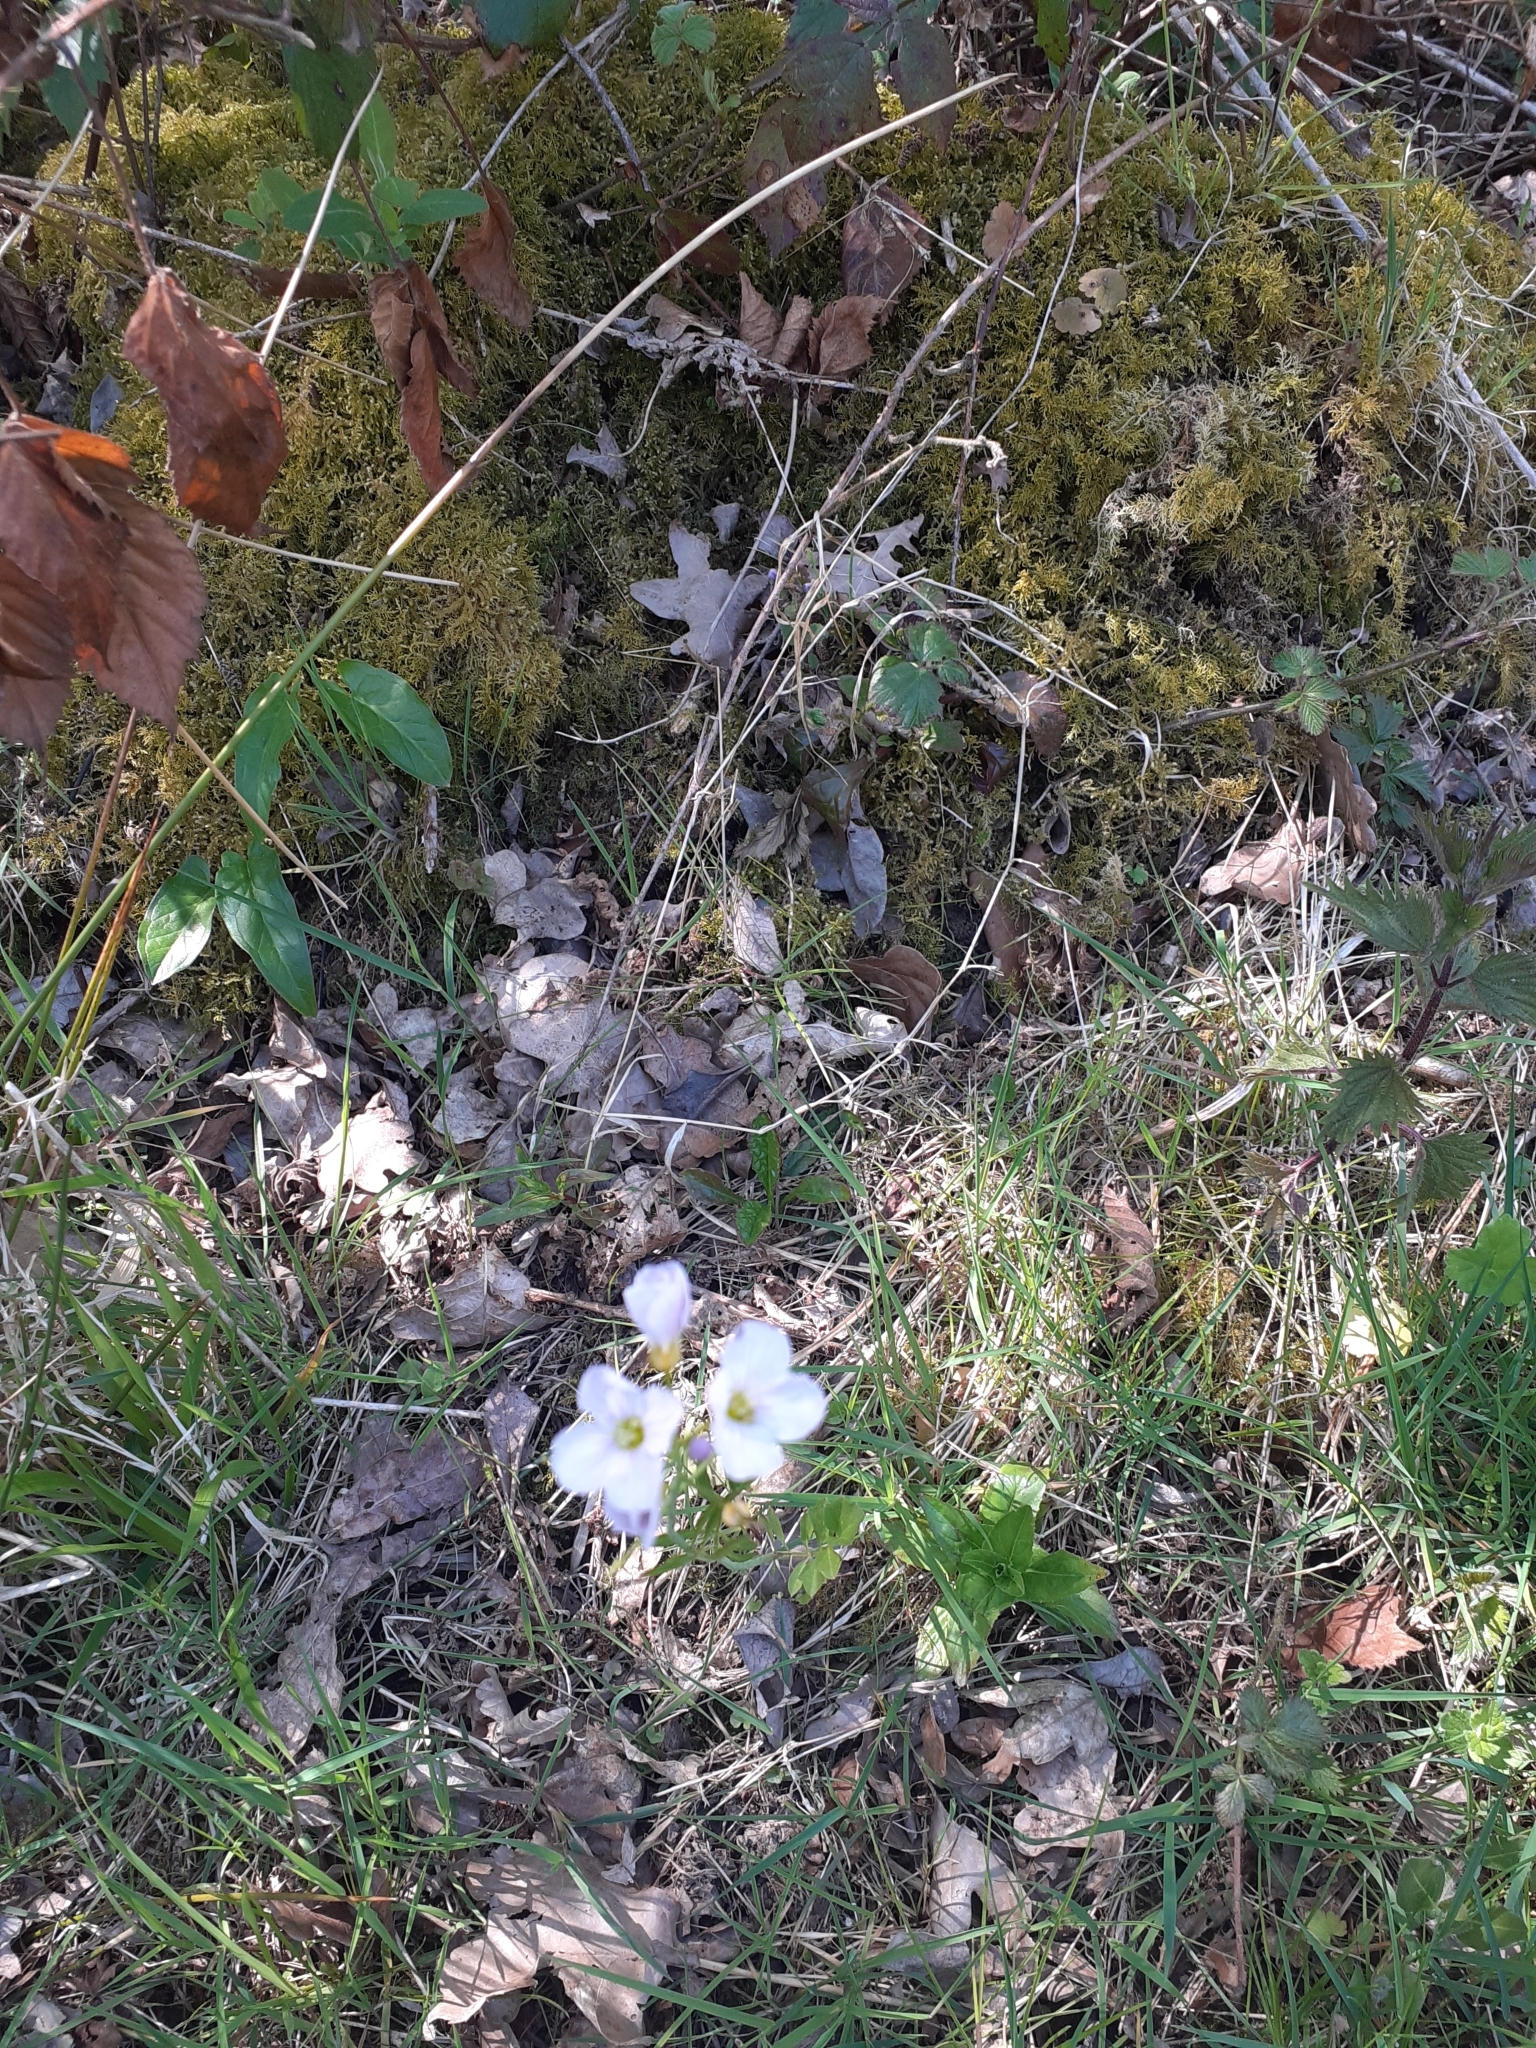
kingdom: Plantae
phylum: Tracheophyta
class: Magnoliopsida
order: Brassicales
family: Brassicaceae
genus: Cardamine
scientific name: Cardamine pratensis
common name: Cuckoo flower
